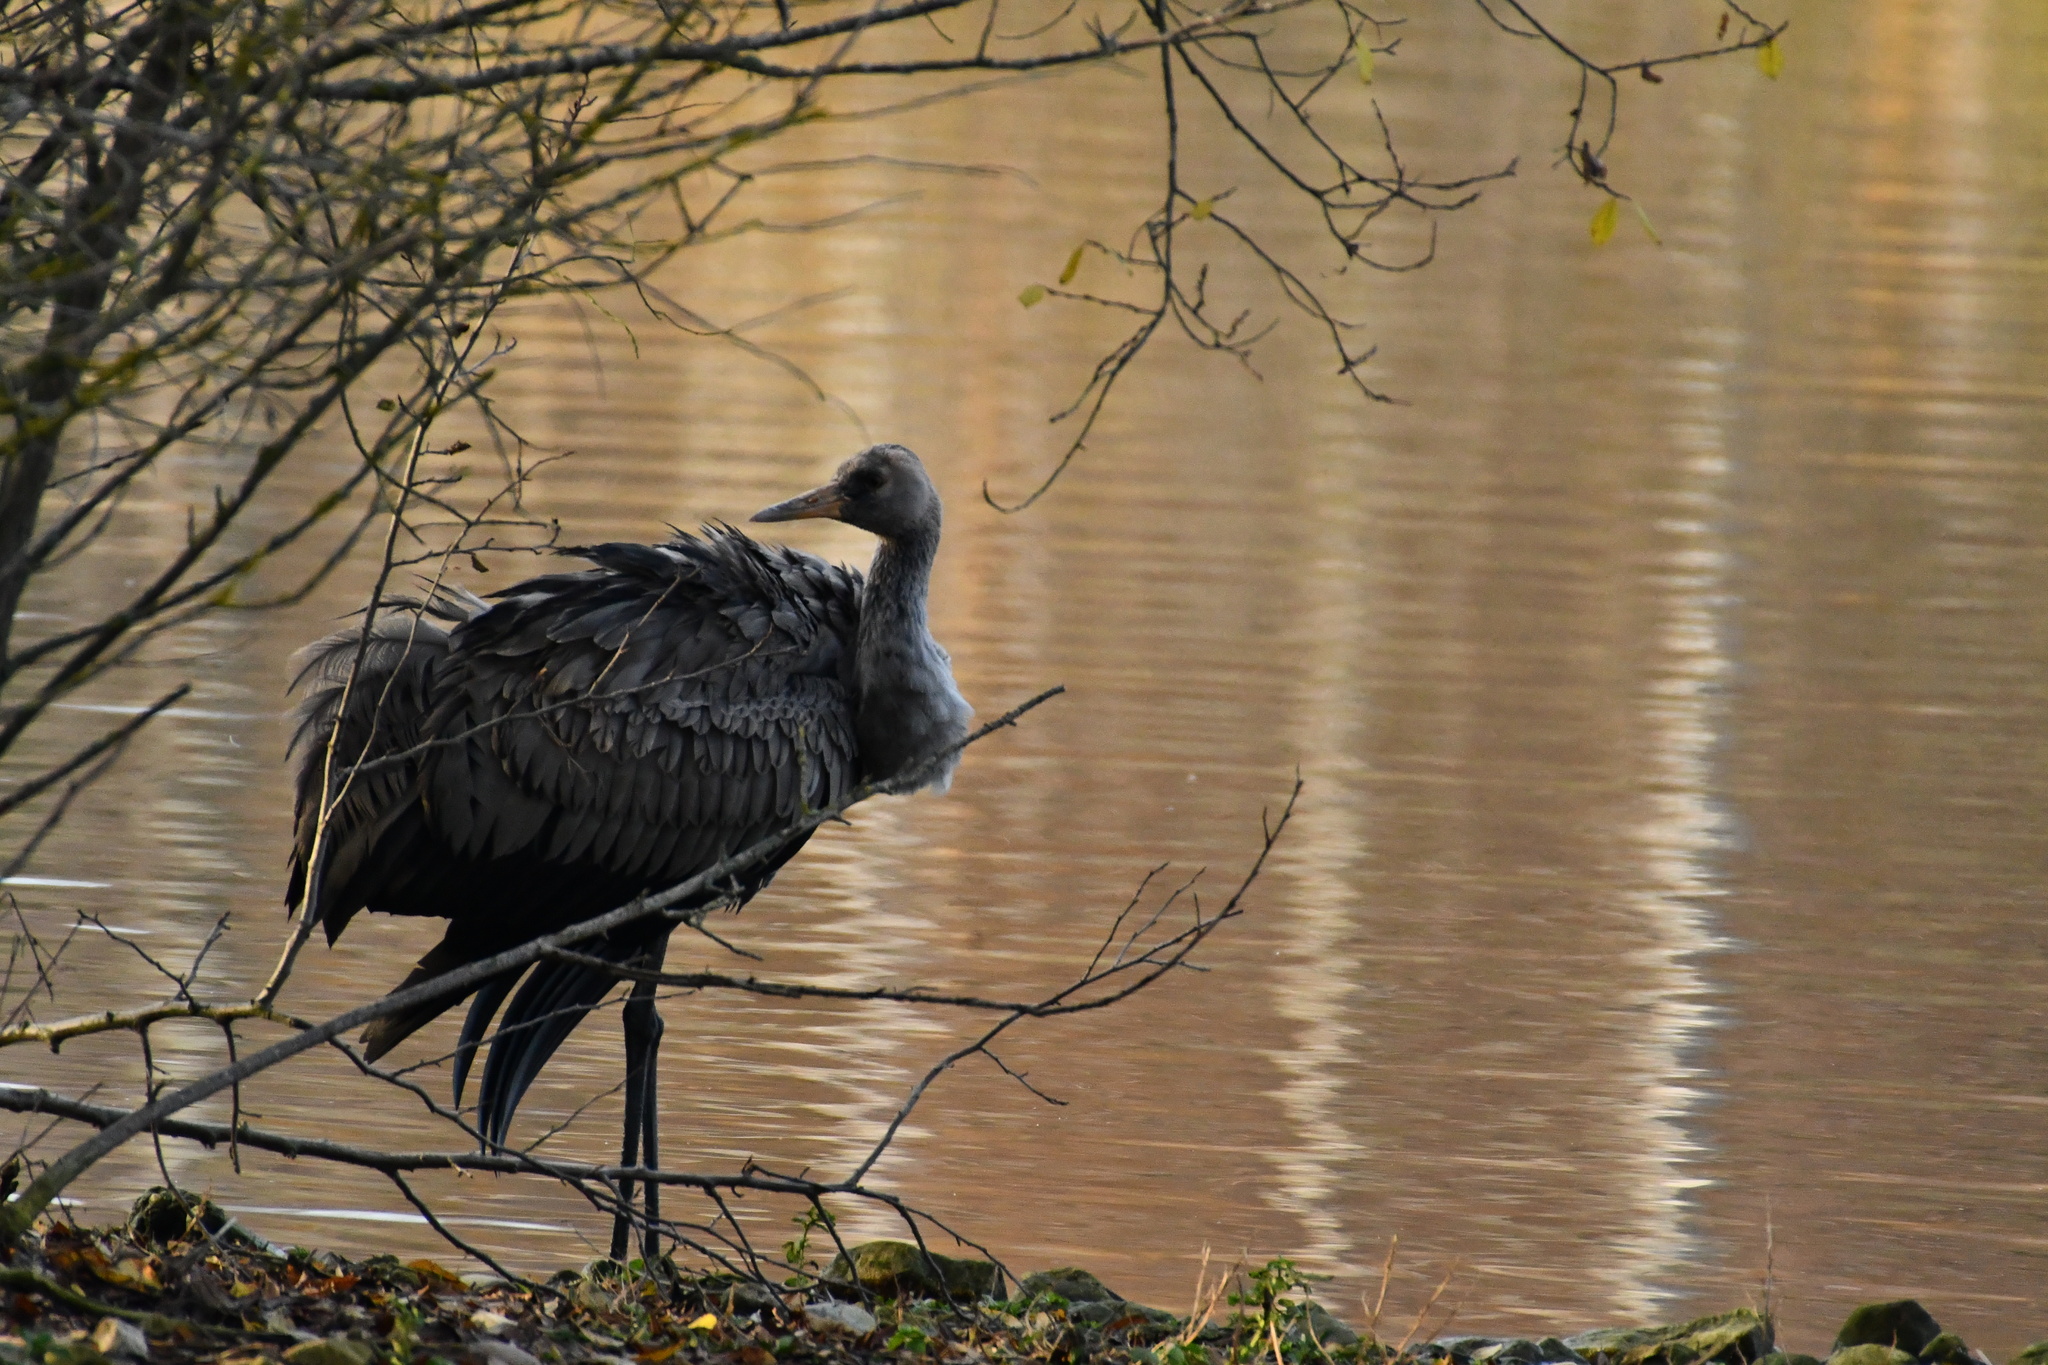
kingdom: Animalia
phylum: Chordata
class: Aves
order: Gruiformes
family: Gruidae
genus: Grus
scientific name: Grus grus
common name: Common crane
